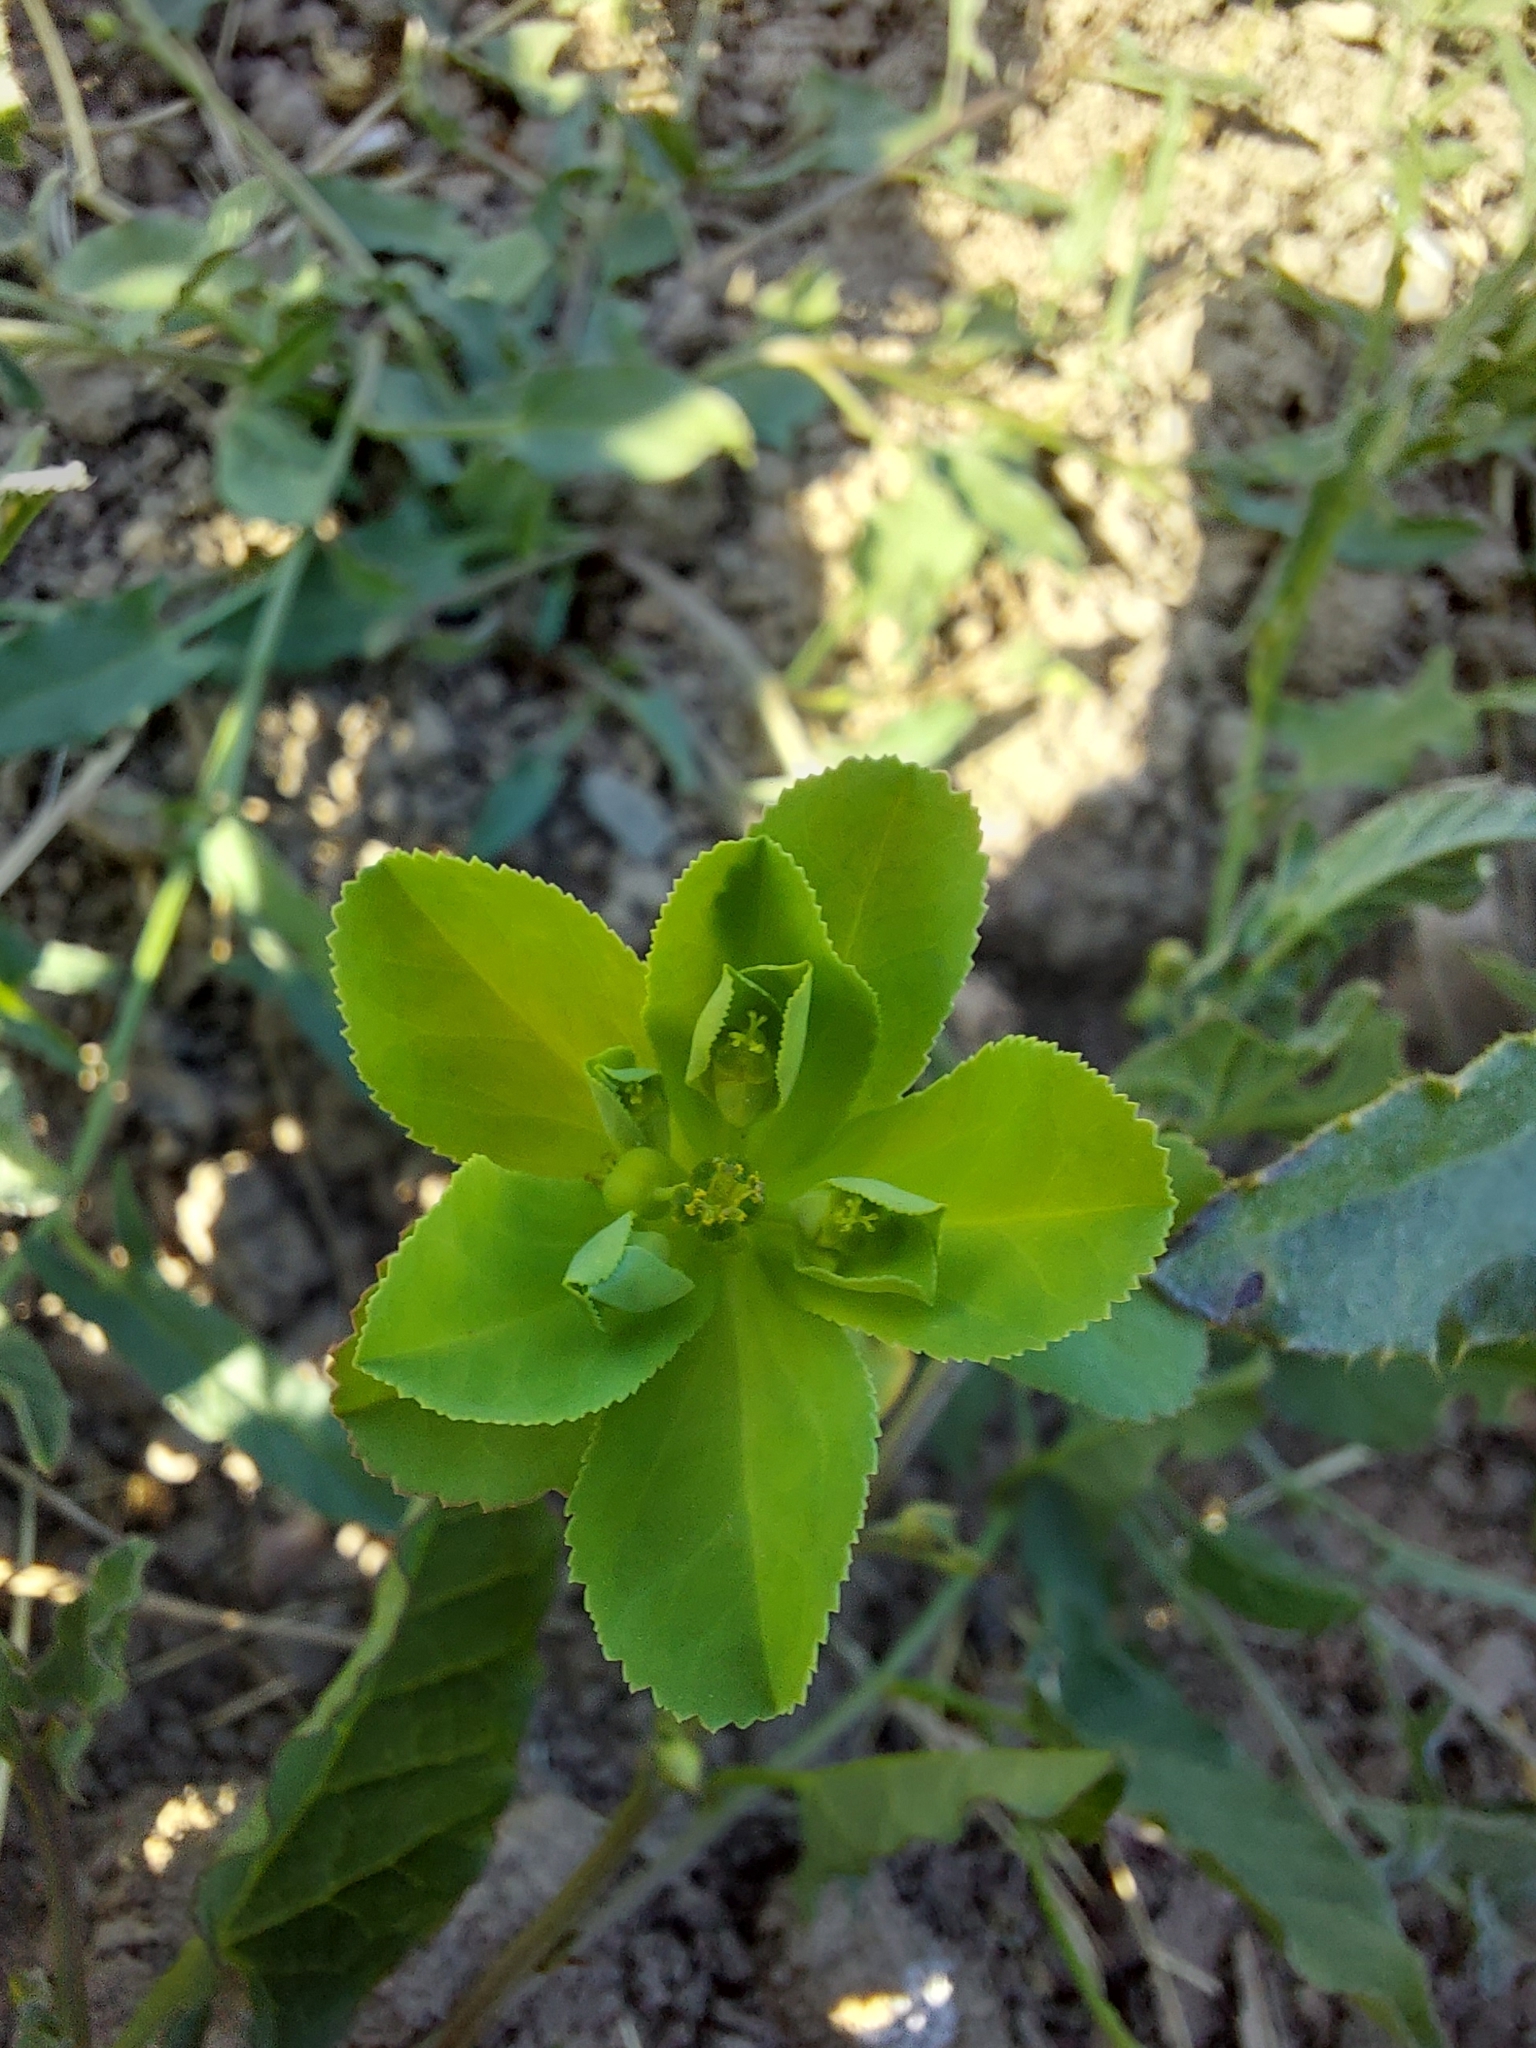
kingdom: Plantae
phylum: Tracheophyta
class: Magnoliopsida
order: Malpighiales
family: Euphorbiaceae
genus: Euphorbia
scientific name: Euphorbia helioscopia
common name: Sun spurge
